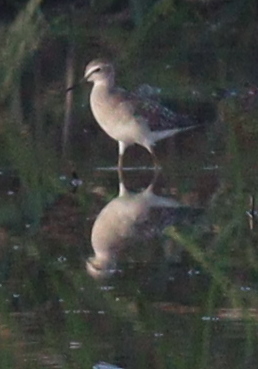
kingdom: Animalia
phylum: Chordata
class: Aves
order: Charadriiformes
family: Scolopacidae
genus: Tringa
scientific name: Tringa glareola
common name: Wood sandpiper
